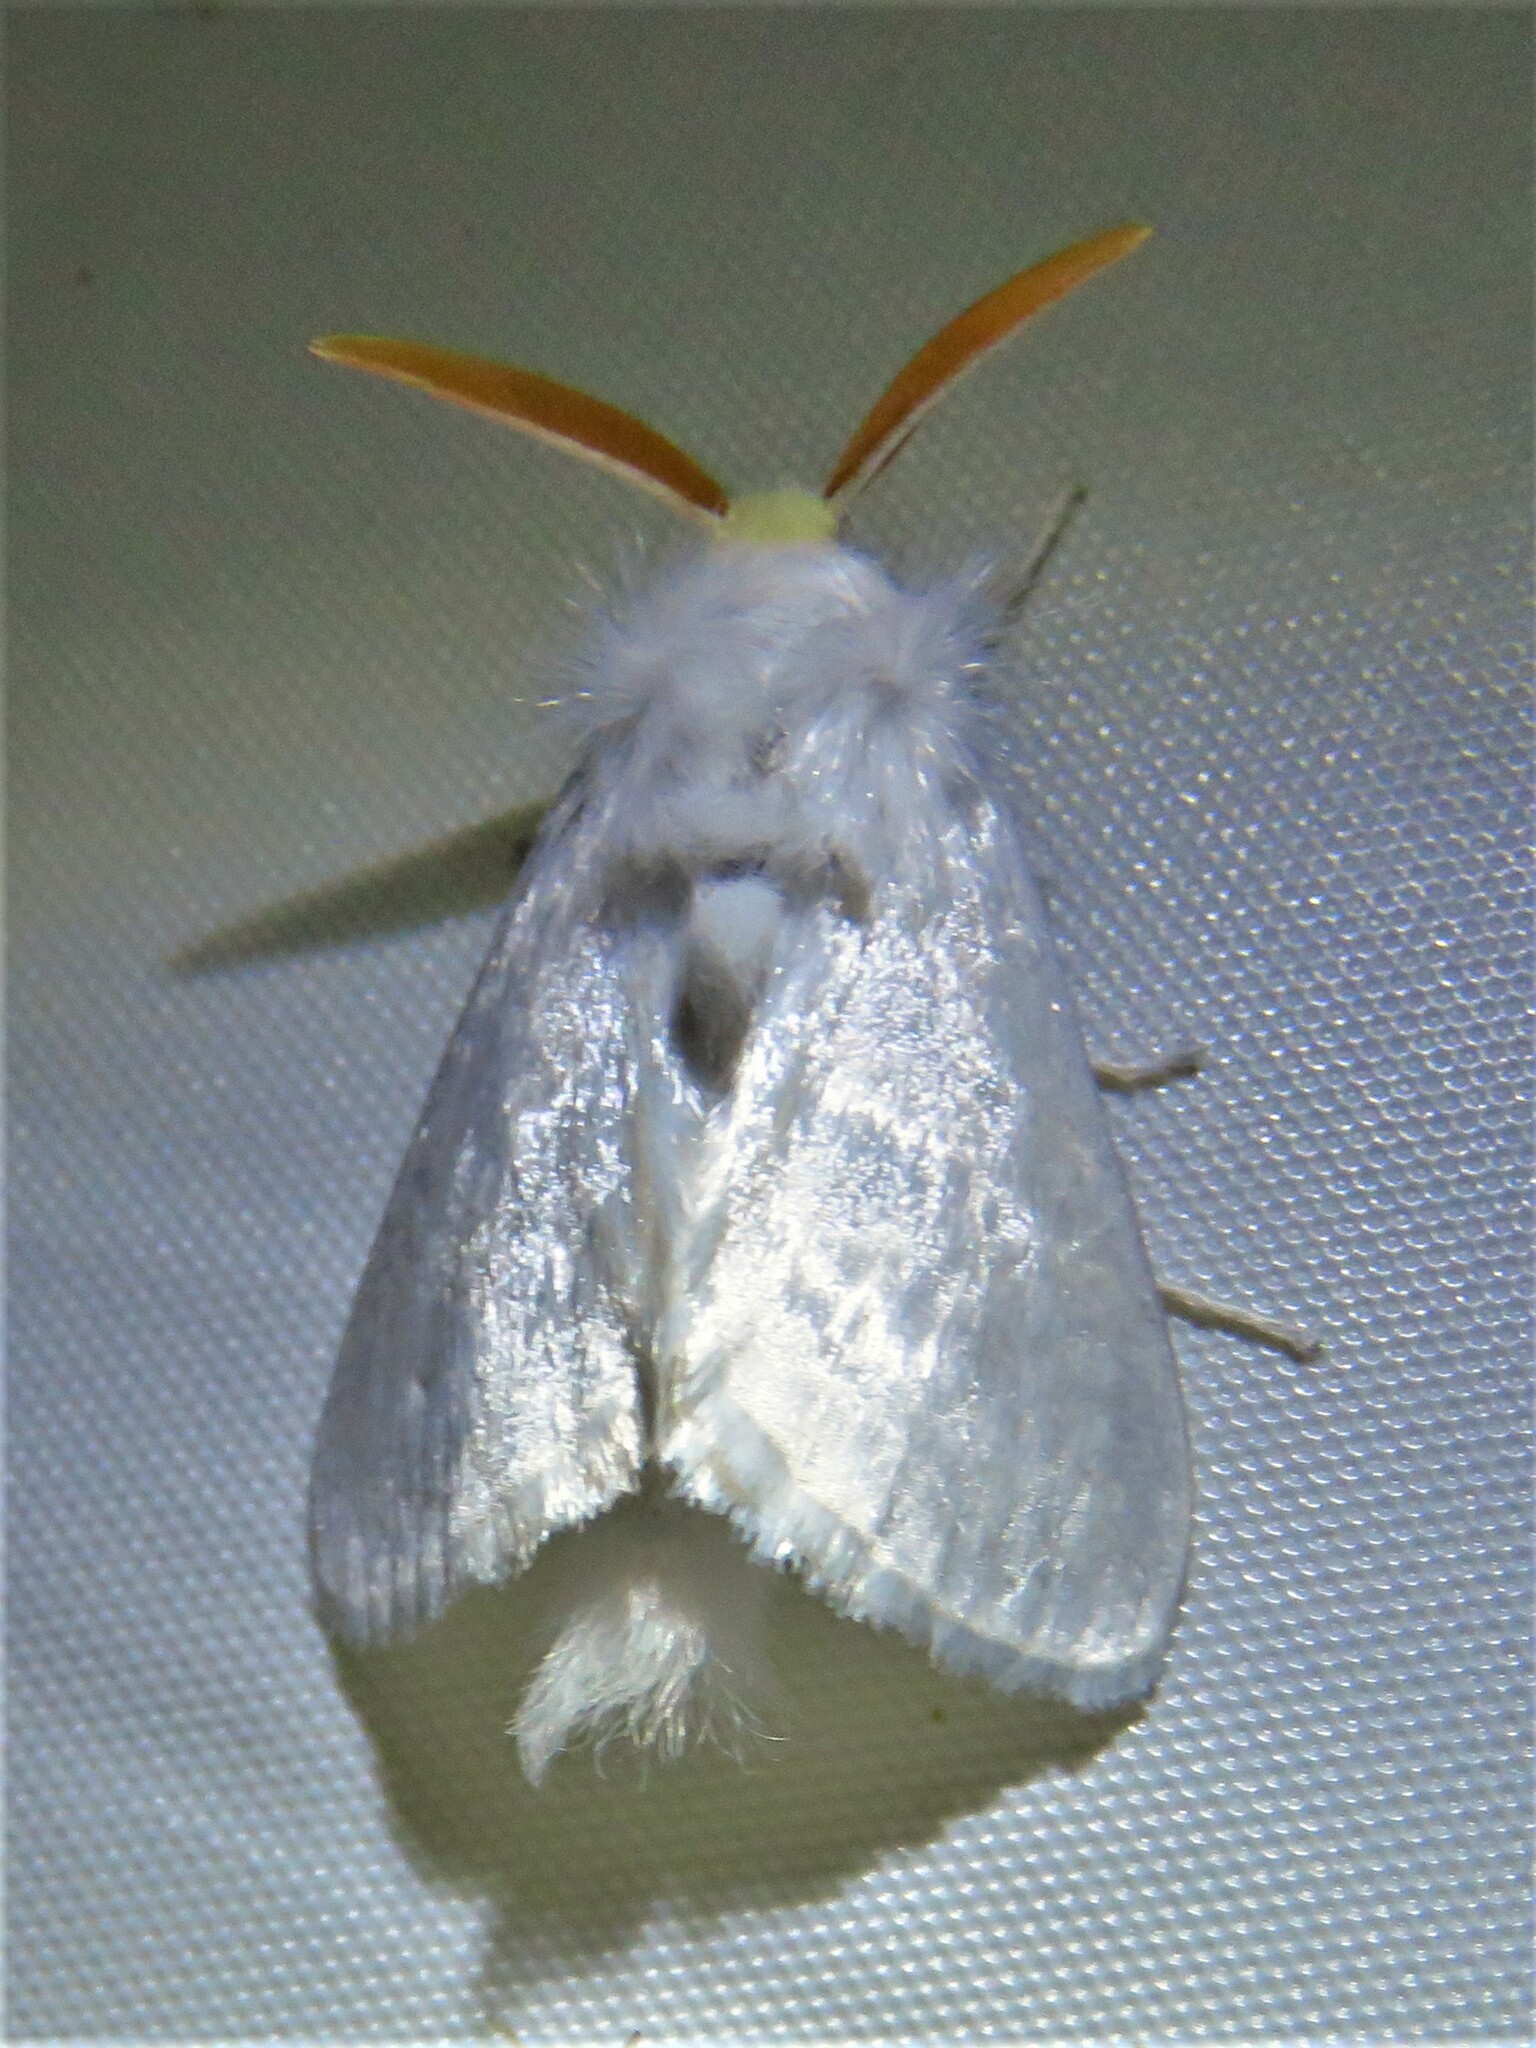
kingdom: Animalia
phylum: Arthropoda
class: Insecta
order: Lepidoptera
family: Megalopygidae
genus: Norape
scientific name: Norape cretata
